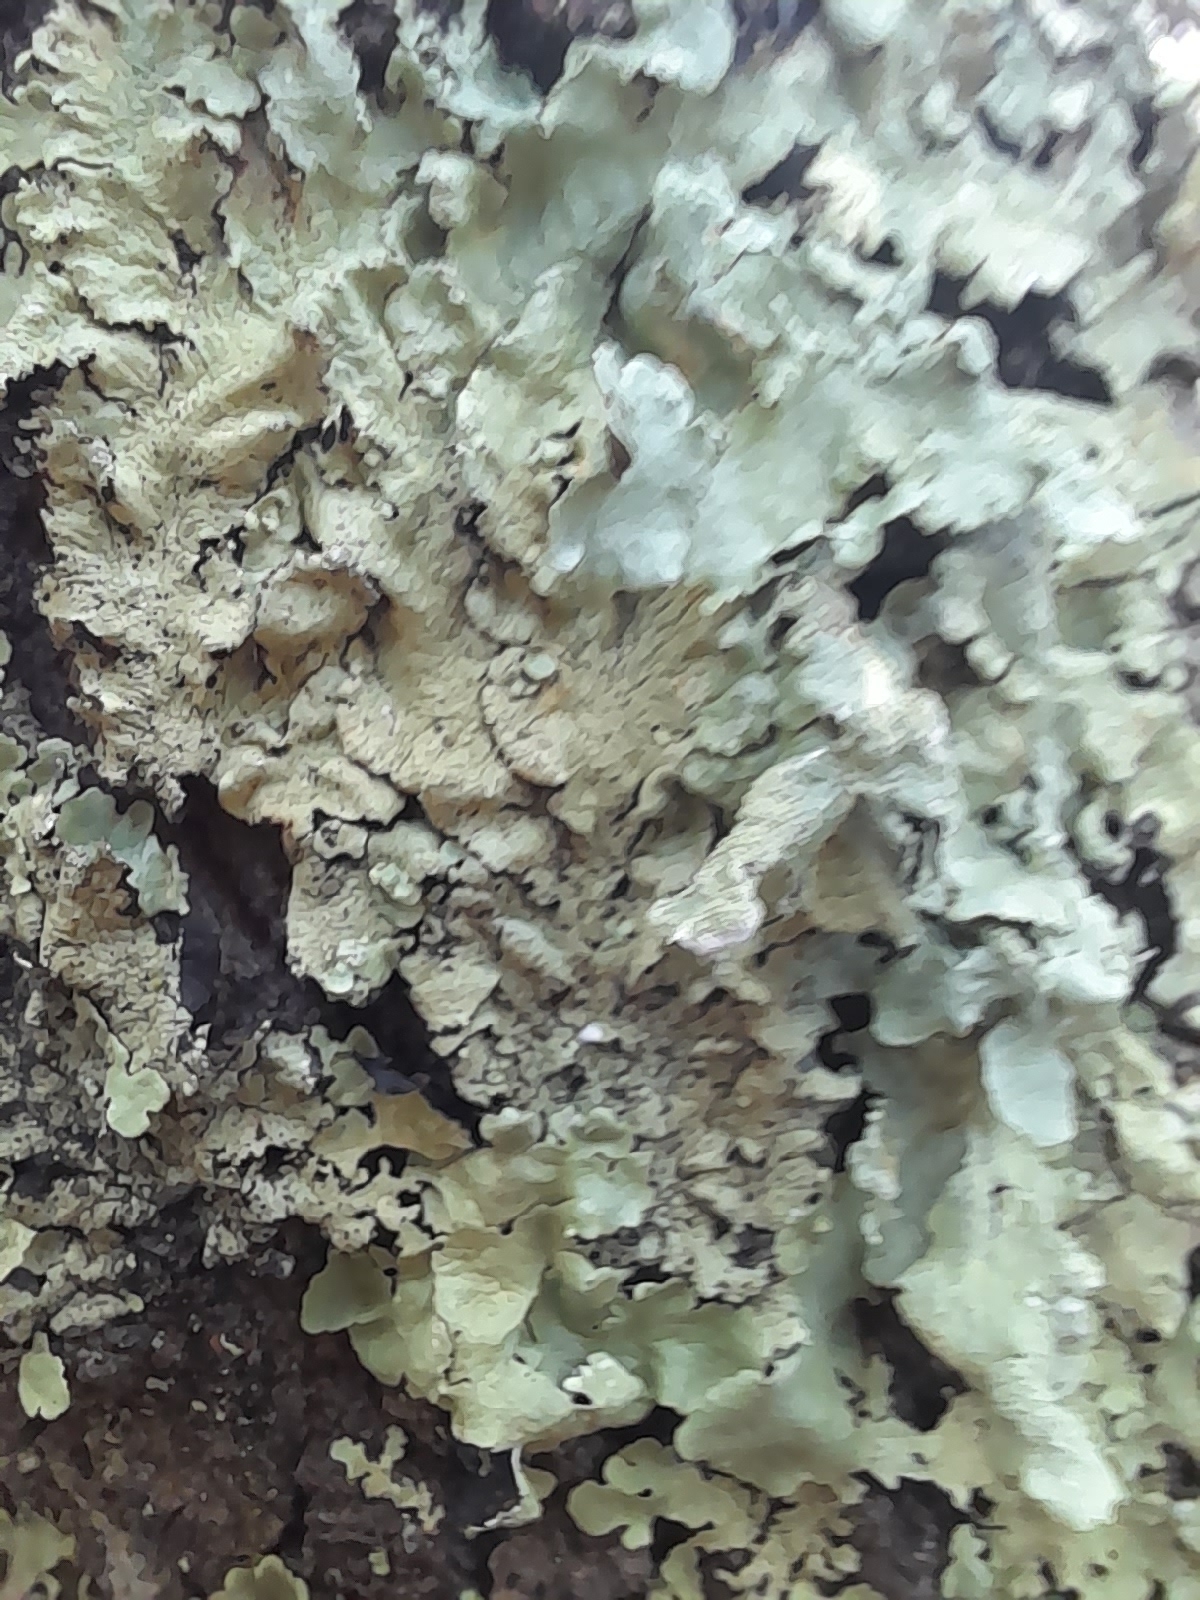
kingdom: Fungi
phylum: Ascomycota
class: Lecanoromycetes
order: Lecanorales
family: Parmeliaceae
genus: Flavoparmelia
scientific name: Flavoparmelia caperata
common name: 40-mile per hour lichen
